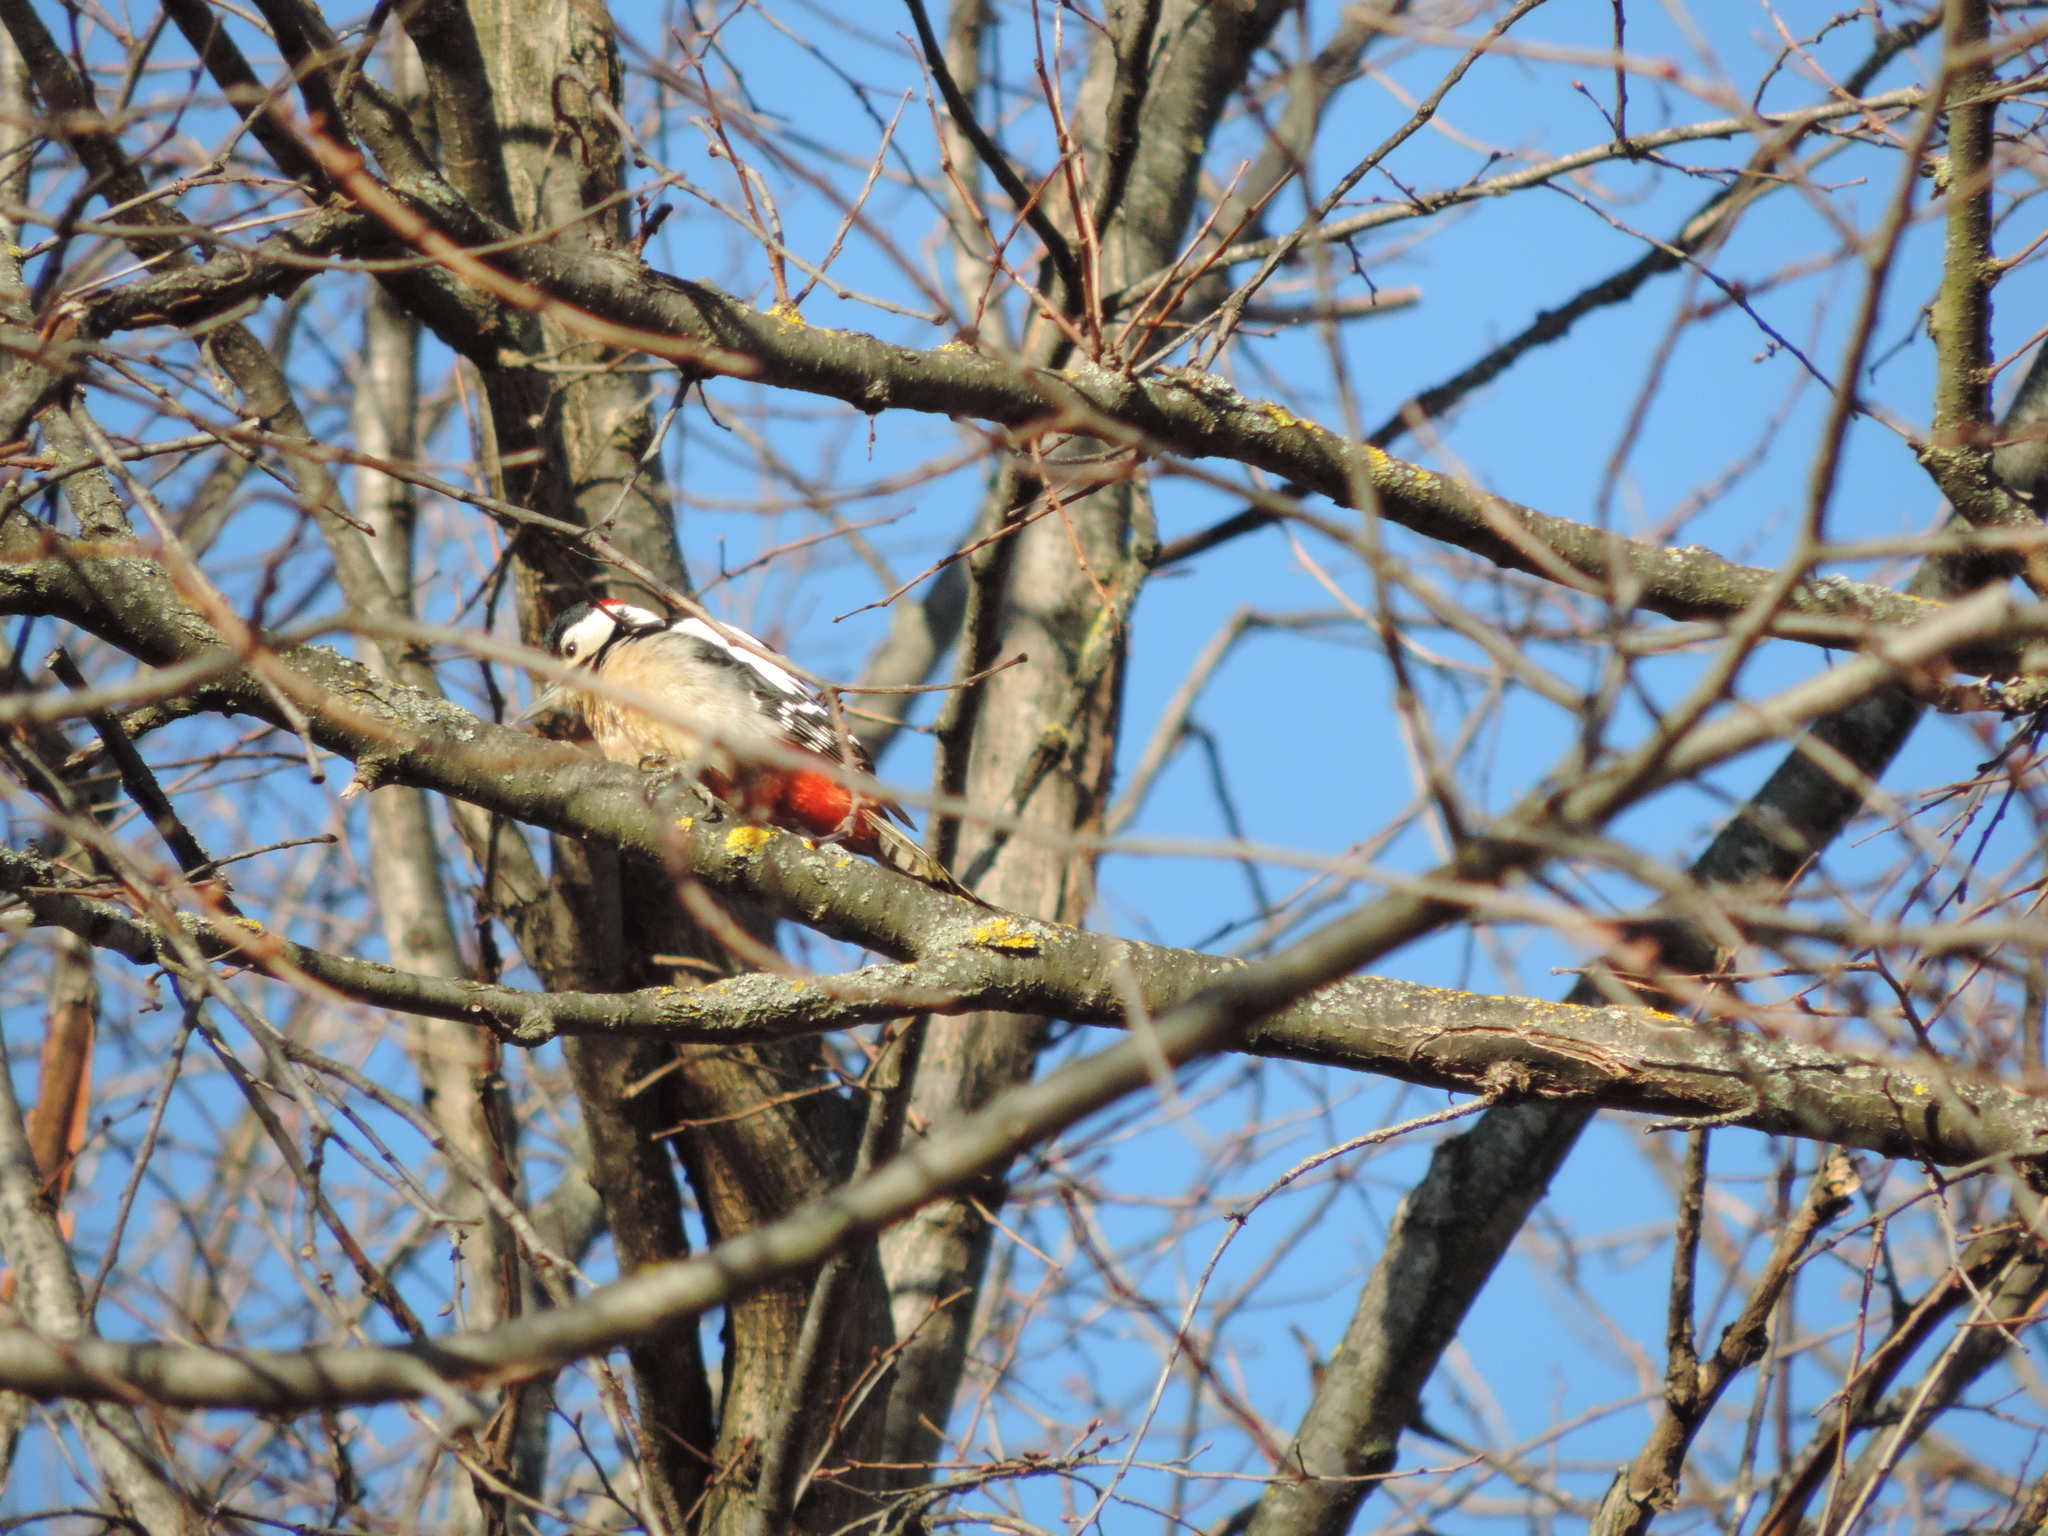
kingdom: Animalia
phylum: Chordata
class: Aves
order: Piciformes
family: Picidae
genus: Dendrocopos
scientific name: Dendrocopos major
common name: Great spotted woodpecker
